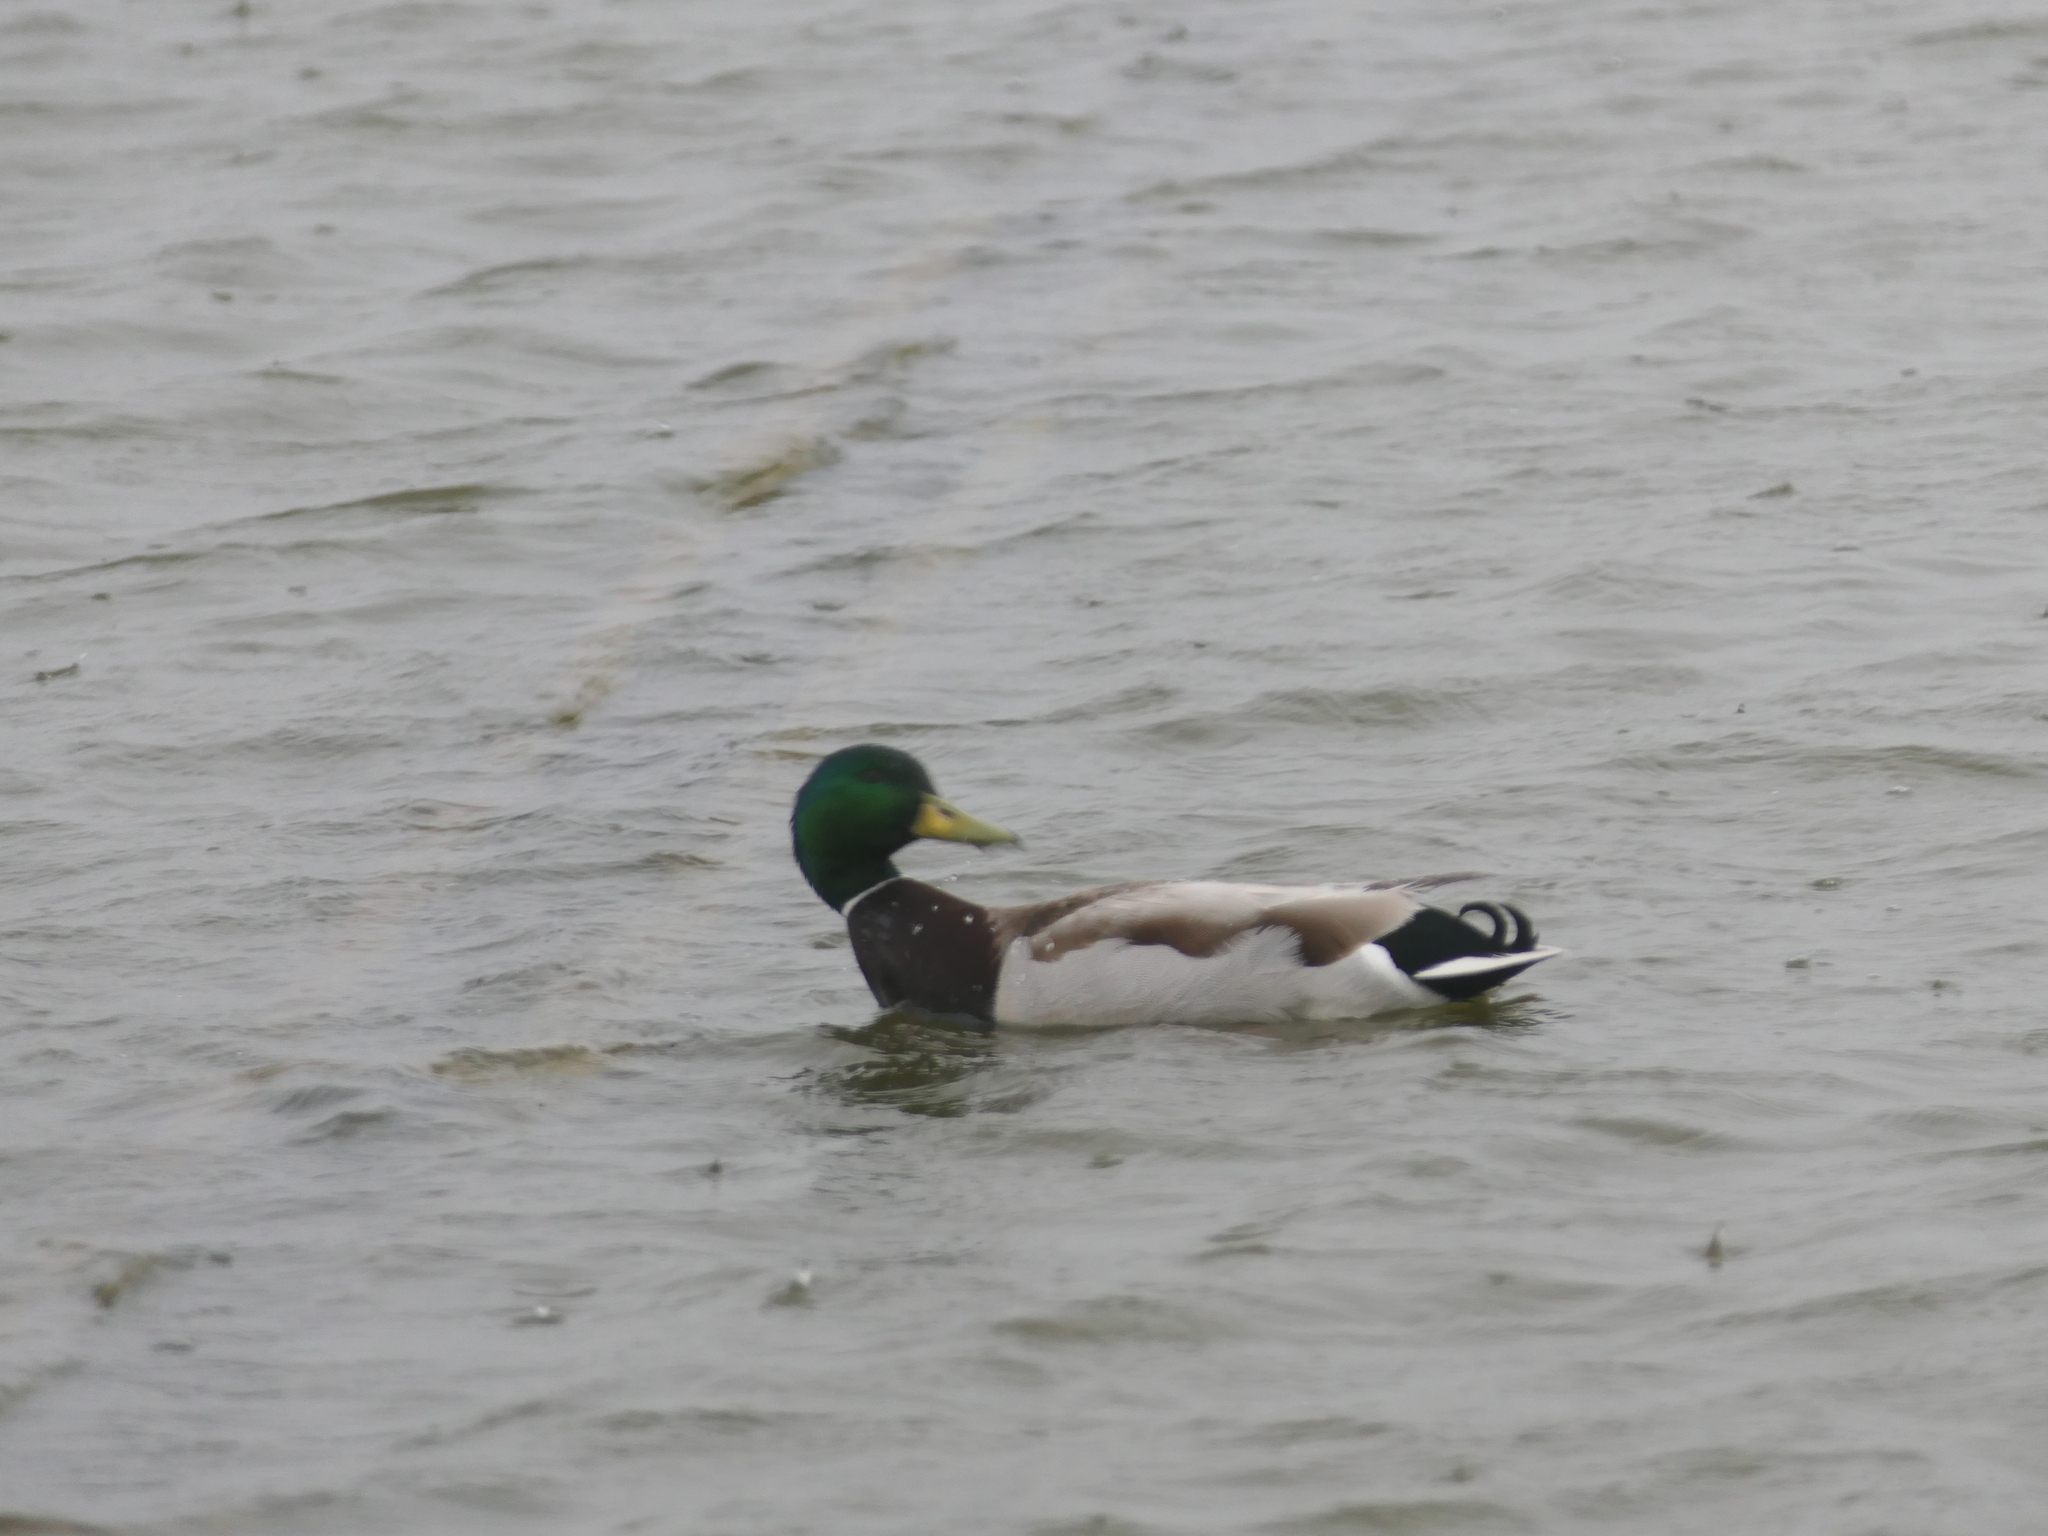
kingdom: Animalia
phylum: Chordata
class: Aves
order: Anseriformes
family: Anatidae
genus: Anas
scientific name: Anas platyrhynchos
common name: Mallard
